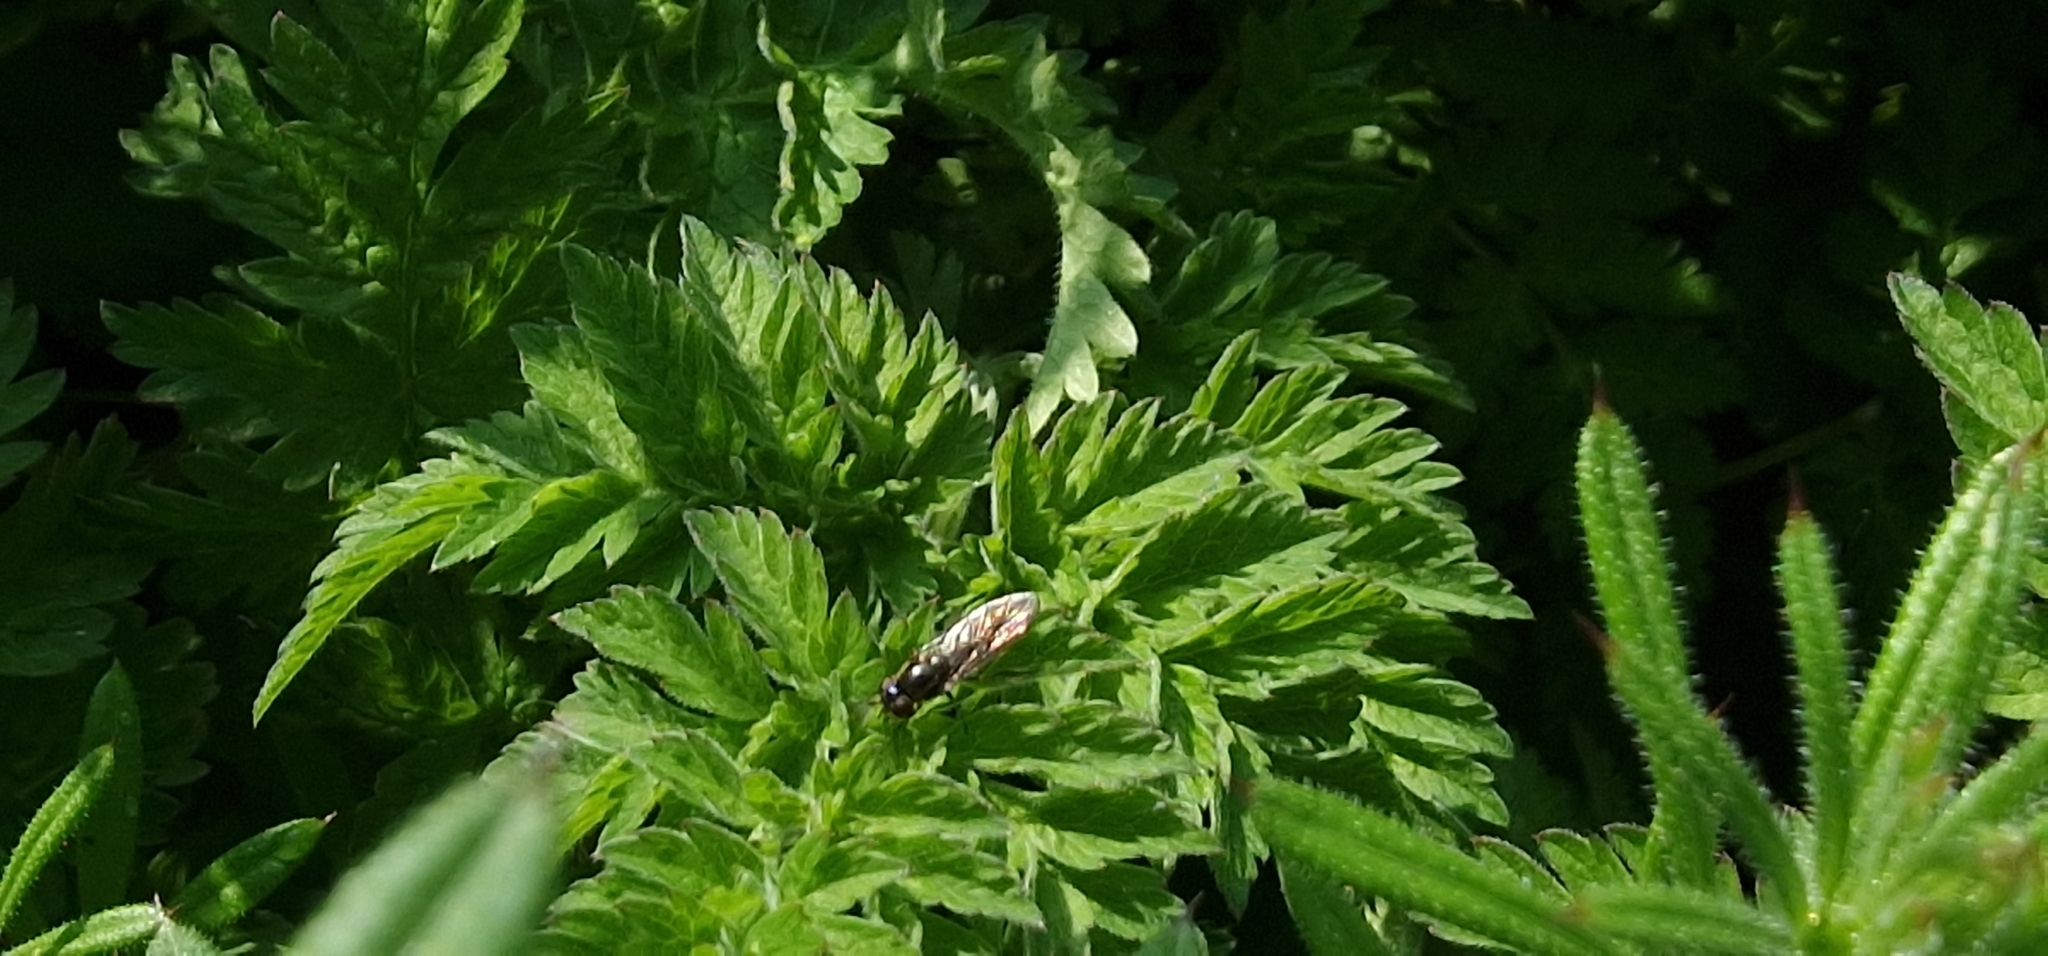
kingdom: Animalia
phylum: Arthropoda
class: Insecta
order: Diptera
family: Syrphidae
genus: Platycheirus
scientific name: Platycheirus albimanus
